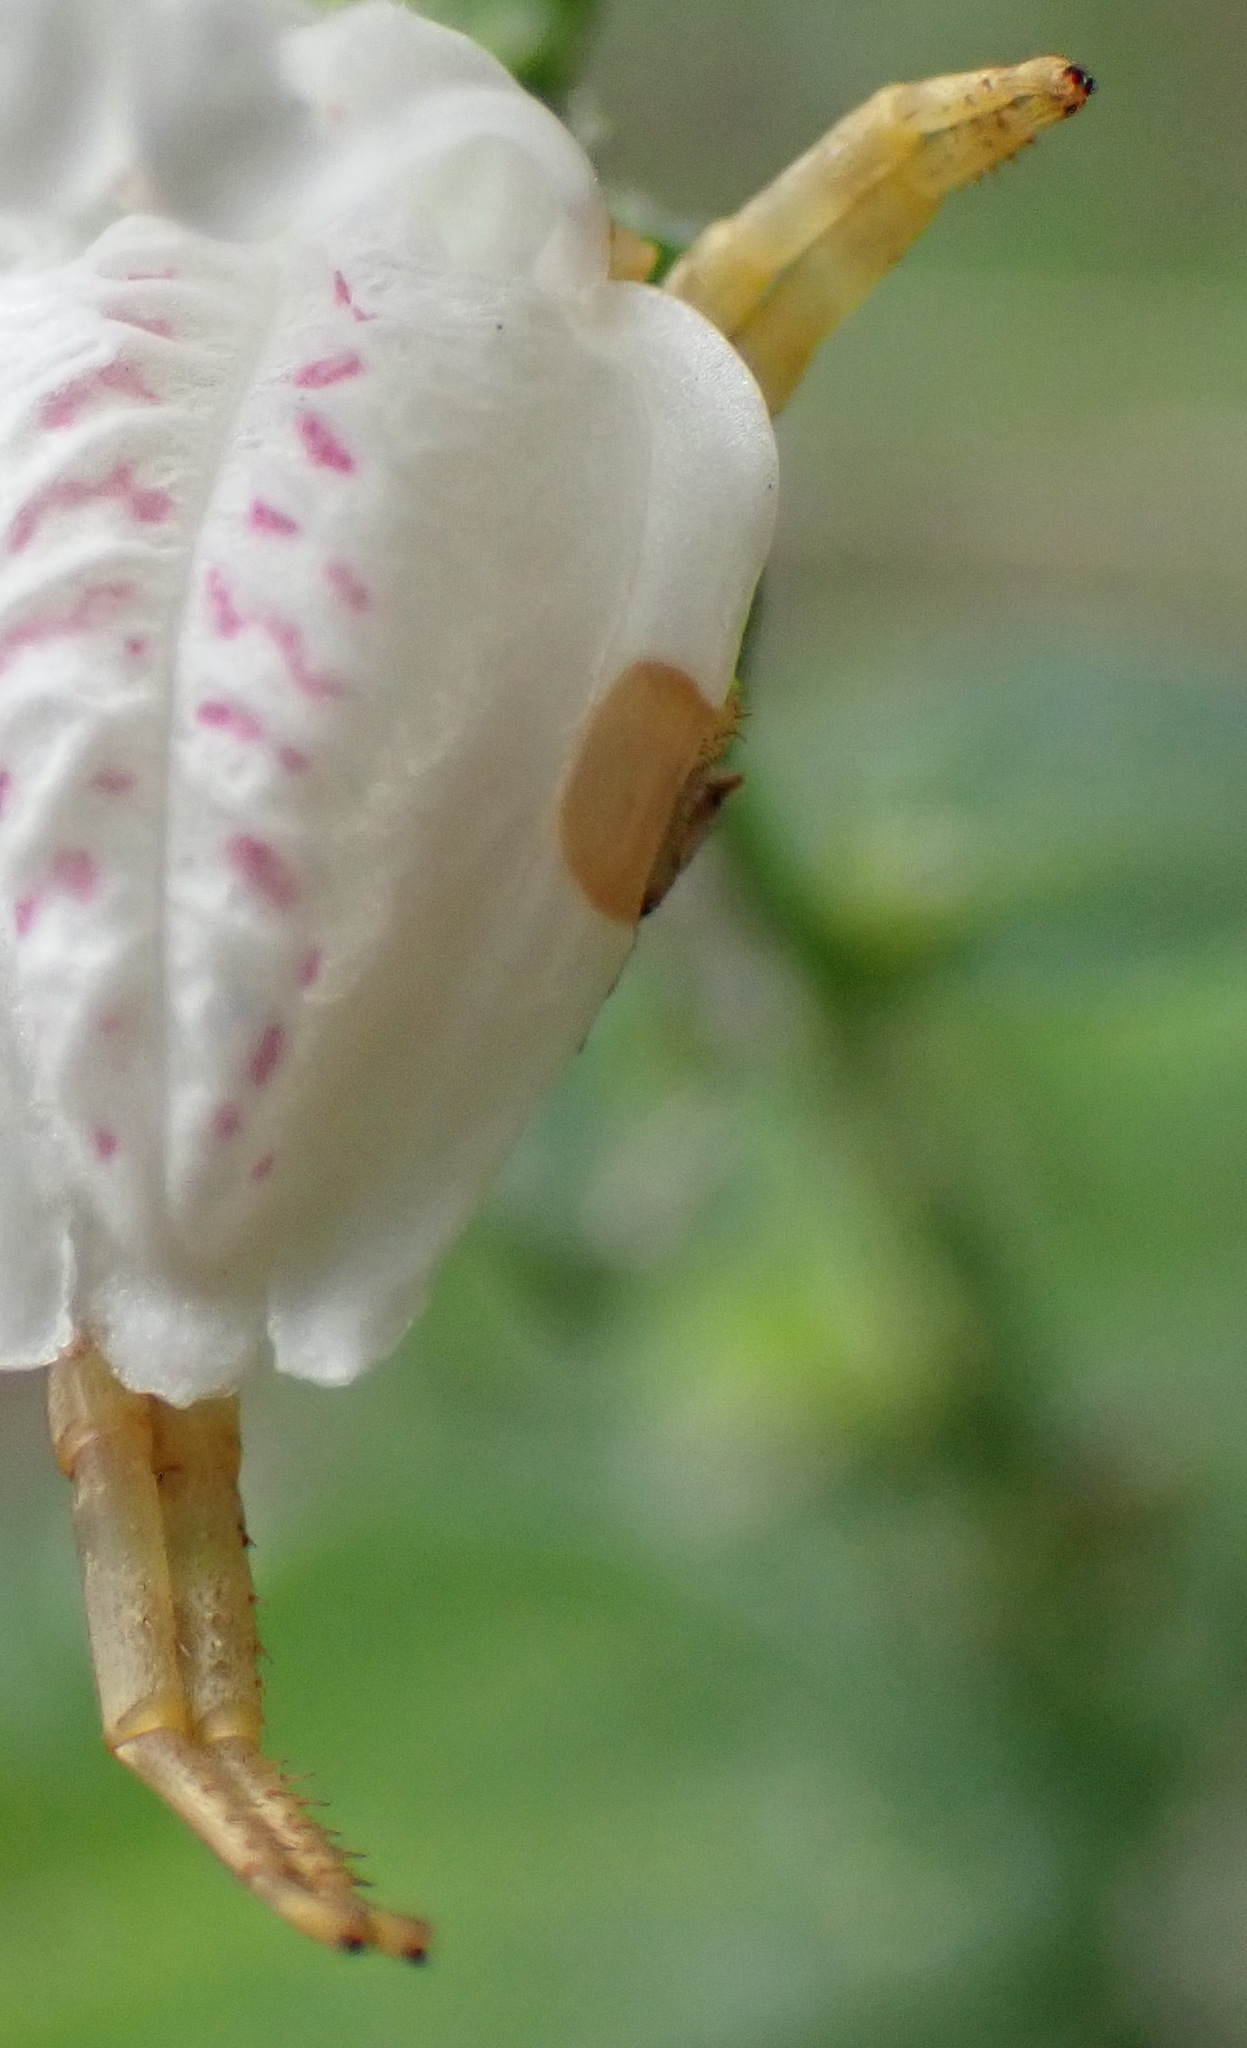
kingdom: Animalia
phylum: Arthropoda
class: Arachnida
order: Araneae
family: Thomisidae
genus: Thomisus
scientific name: Thomisus blandus
